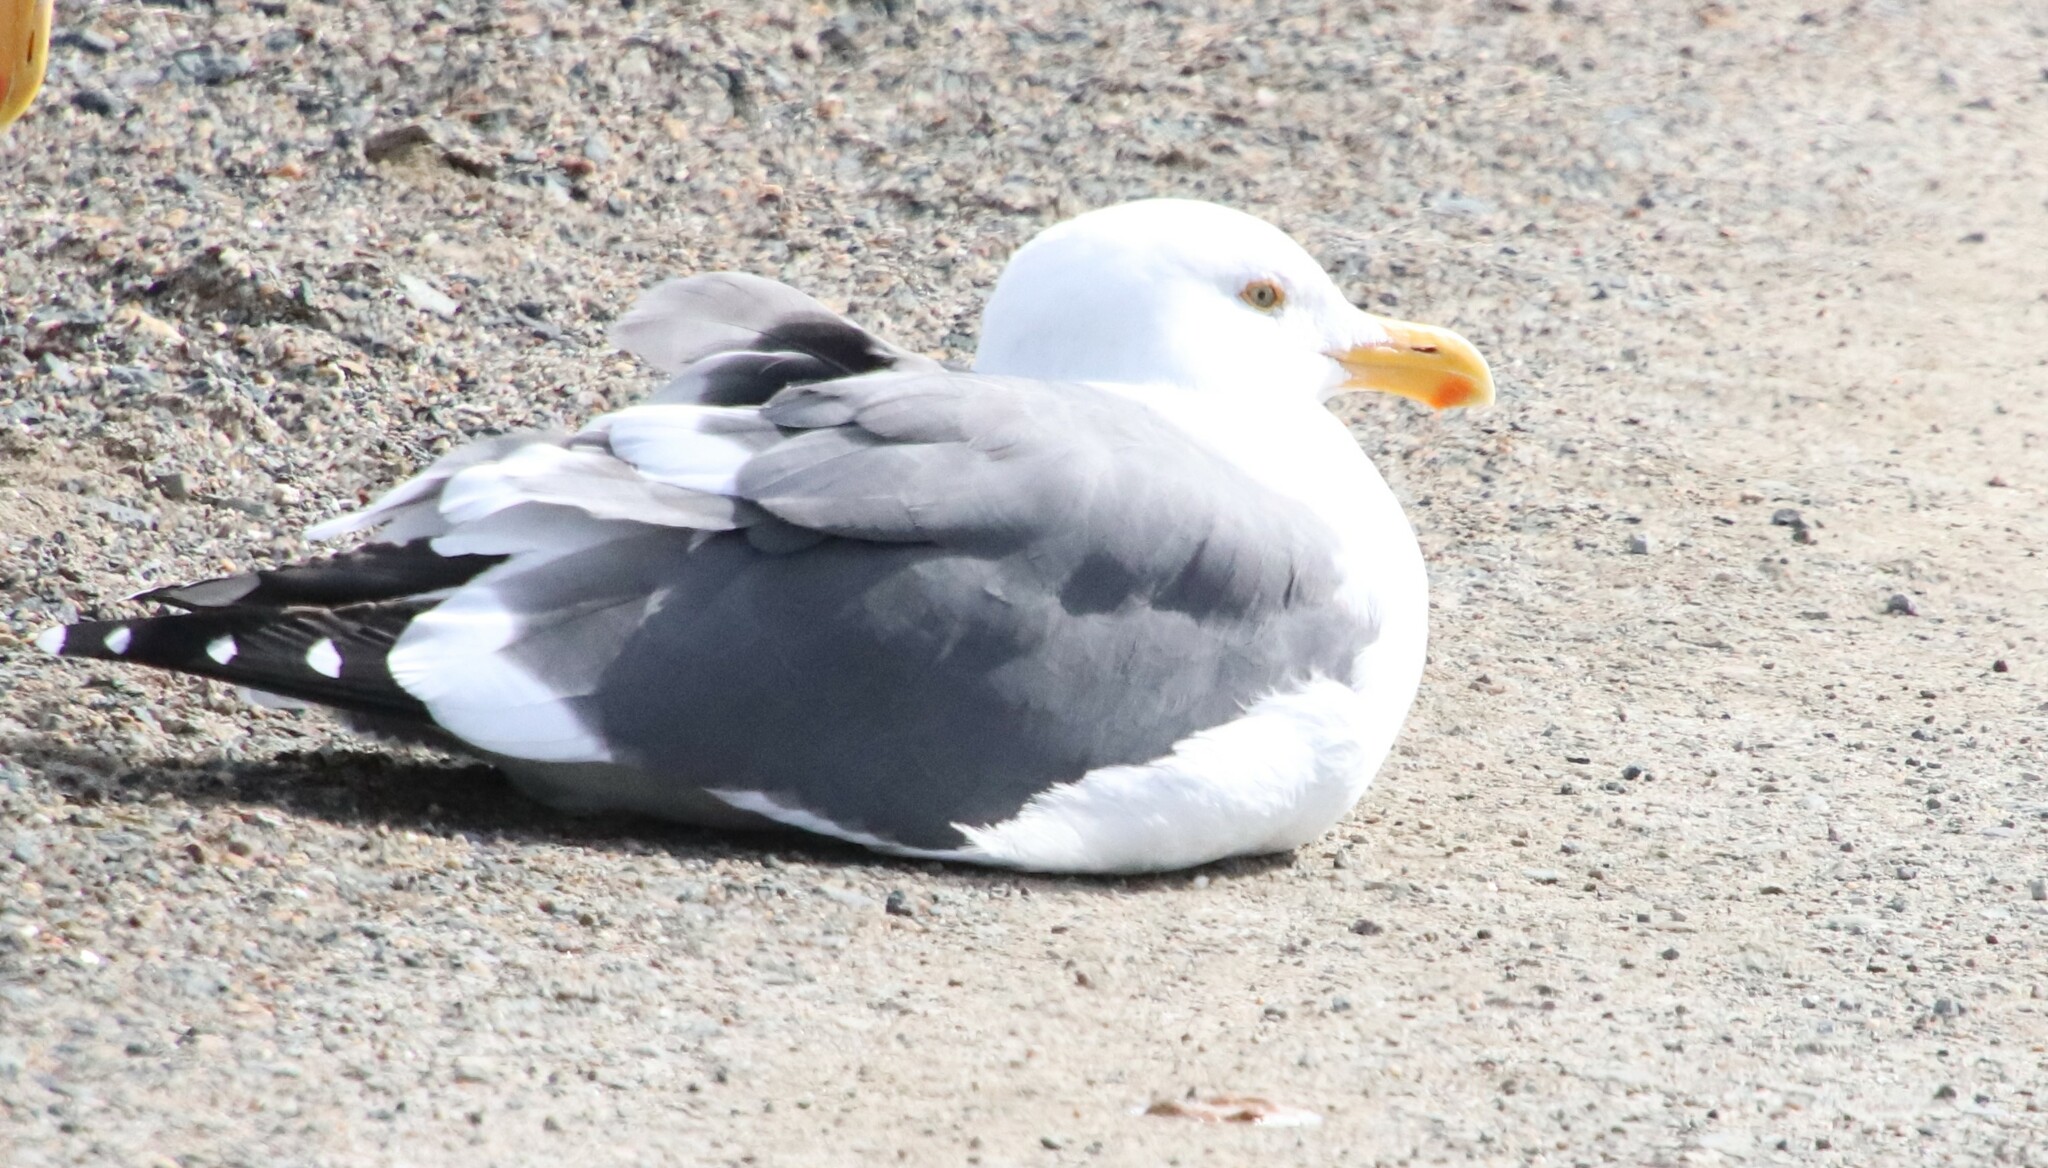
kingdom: Animalia
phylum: Chordata
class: Aves
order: Charadriiformes
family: Laridae
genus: Larus
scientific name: Larus occidentalis
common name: Western gull
